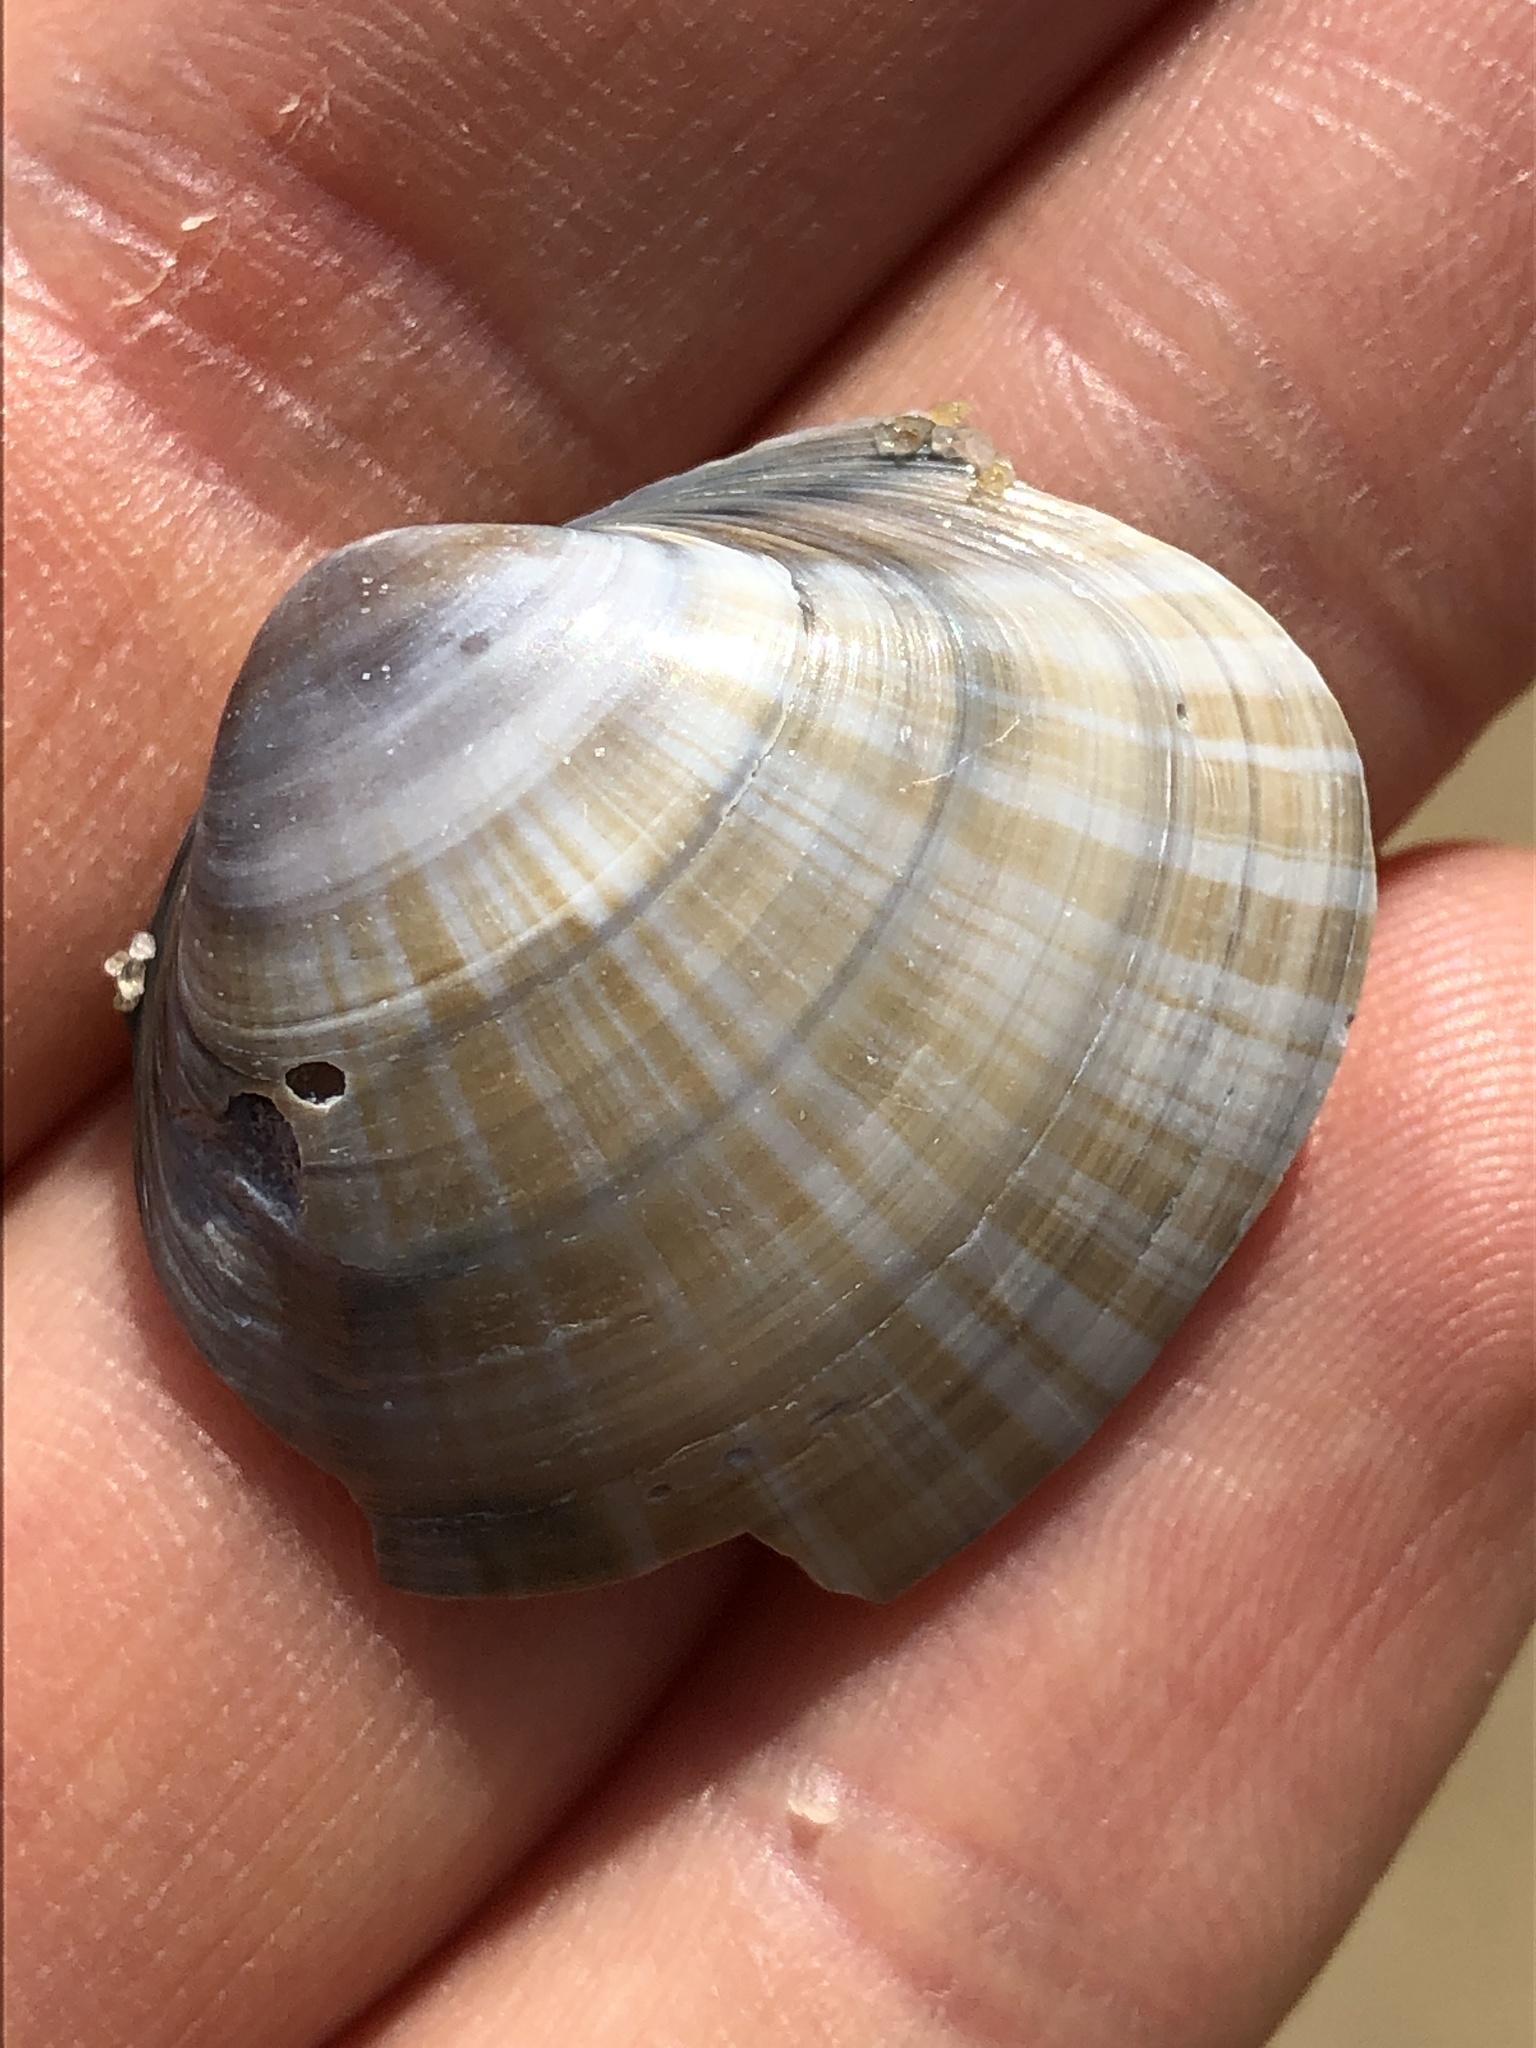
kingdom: Animalia
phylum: Mollusca
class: Bivalvia
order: Venerida
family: Mactridae
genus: Mactra
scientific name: Mactra chinensis
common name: Chinese surf clam
